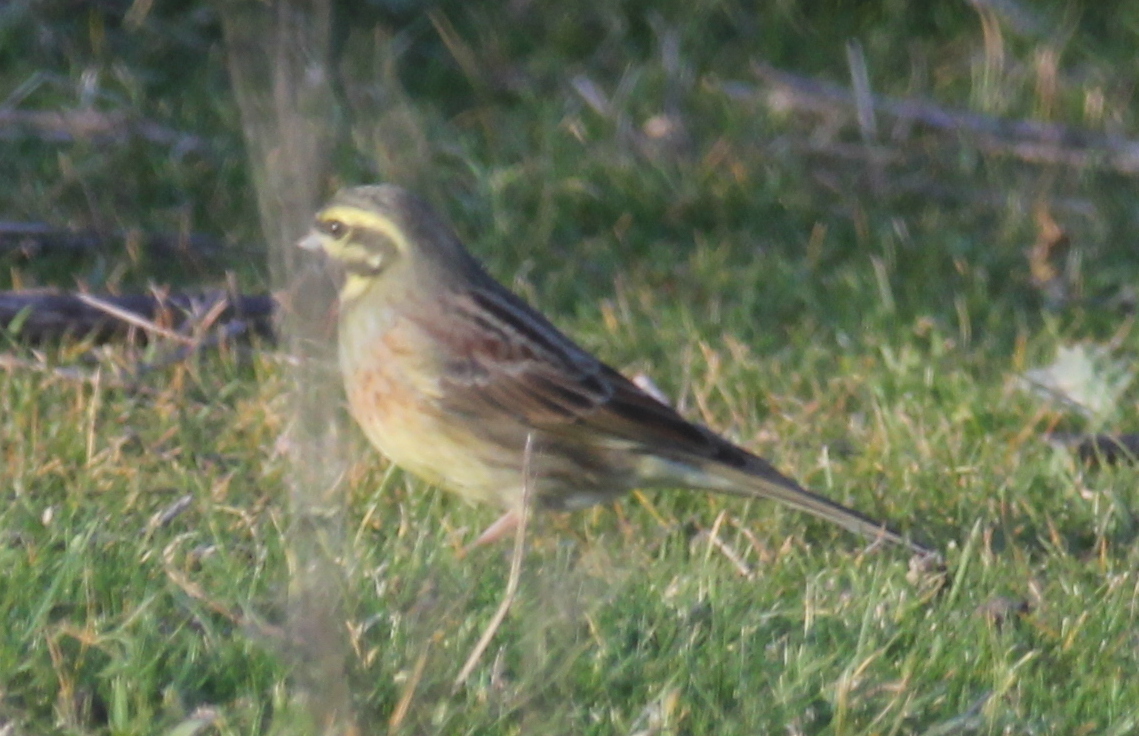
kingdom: Animalia
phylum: Chordata
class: Aves
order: Passeriformes
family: Emberizidae
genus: Emberiza
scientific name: Emberiza cirlus
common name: Cirl bunting
